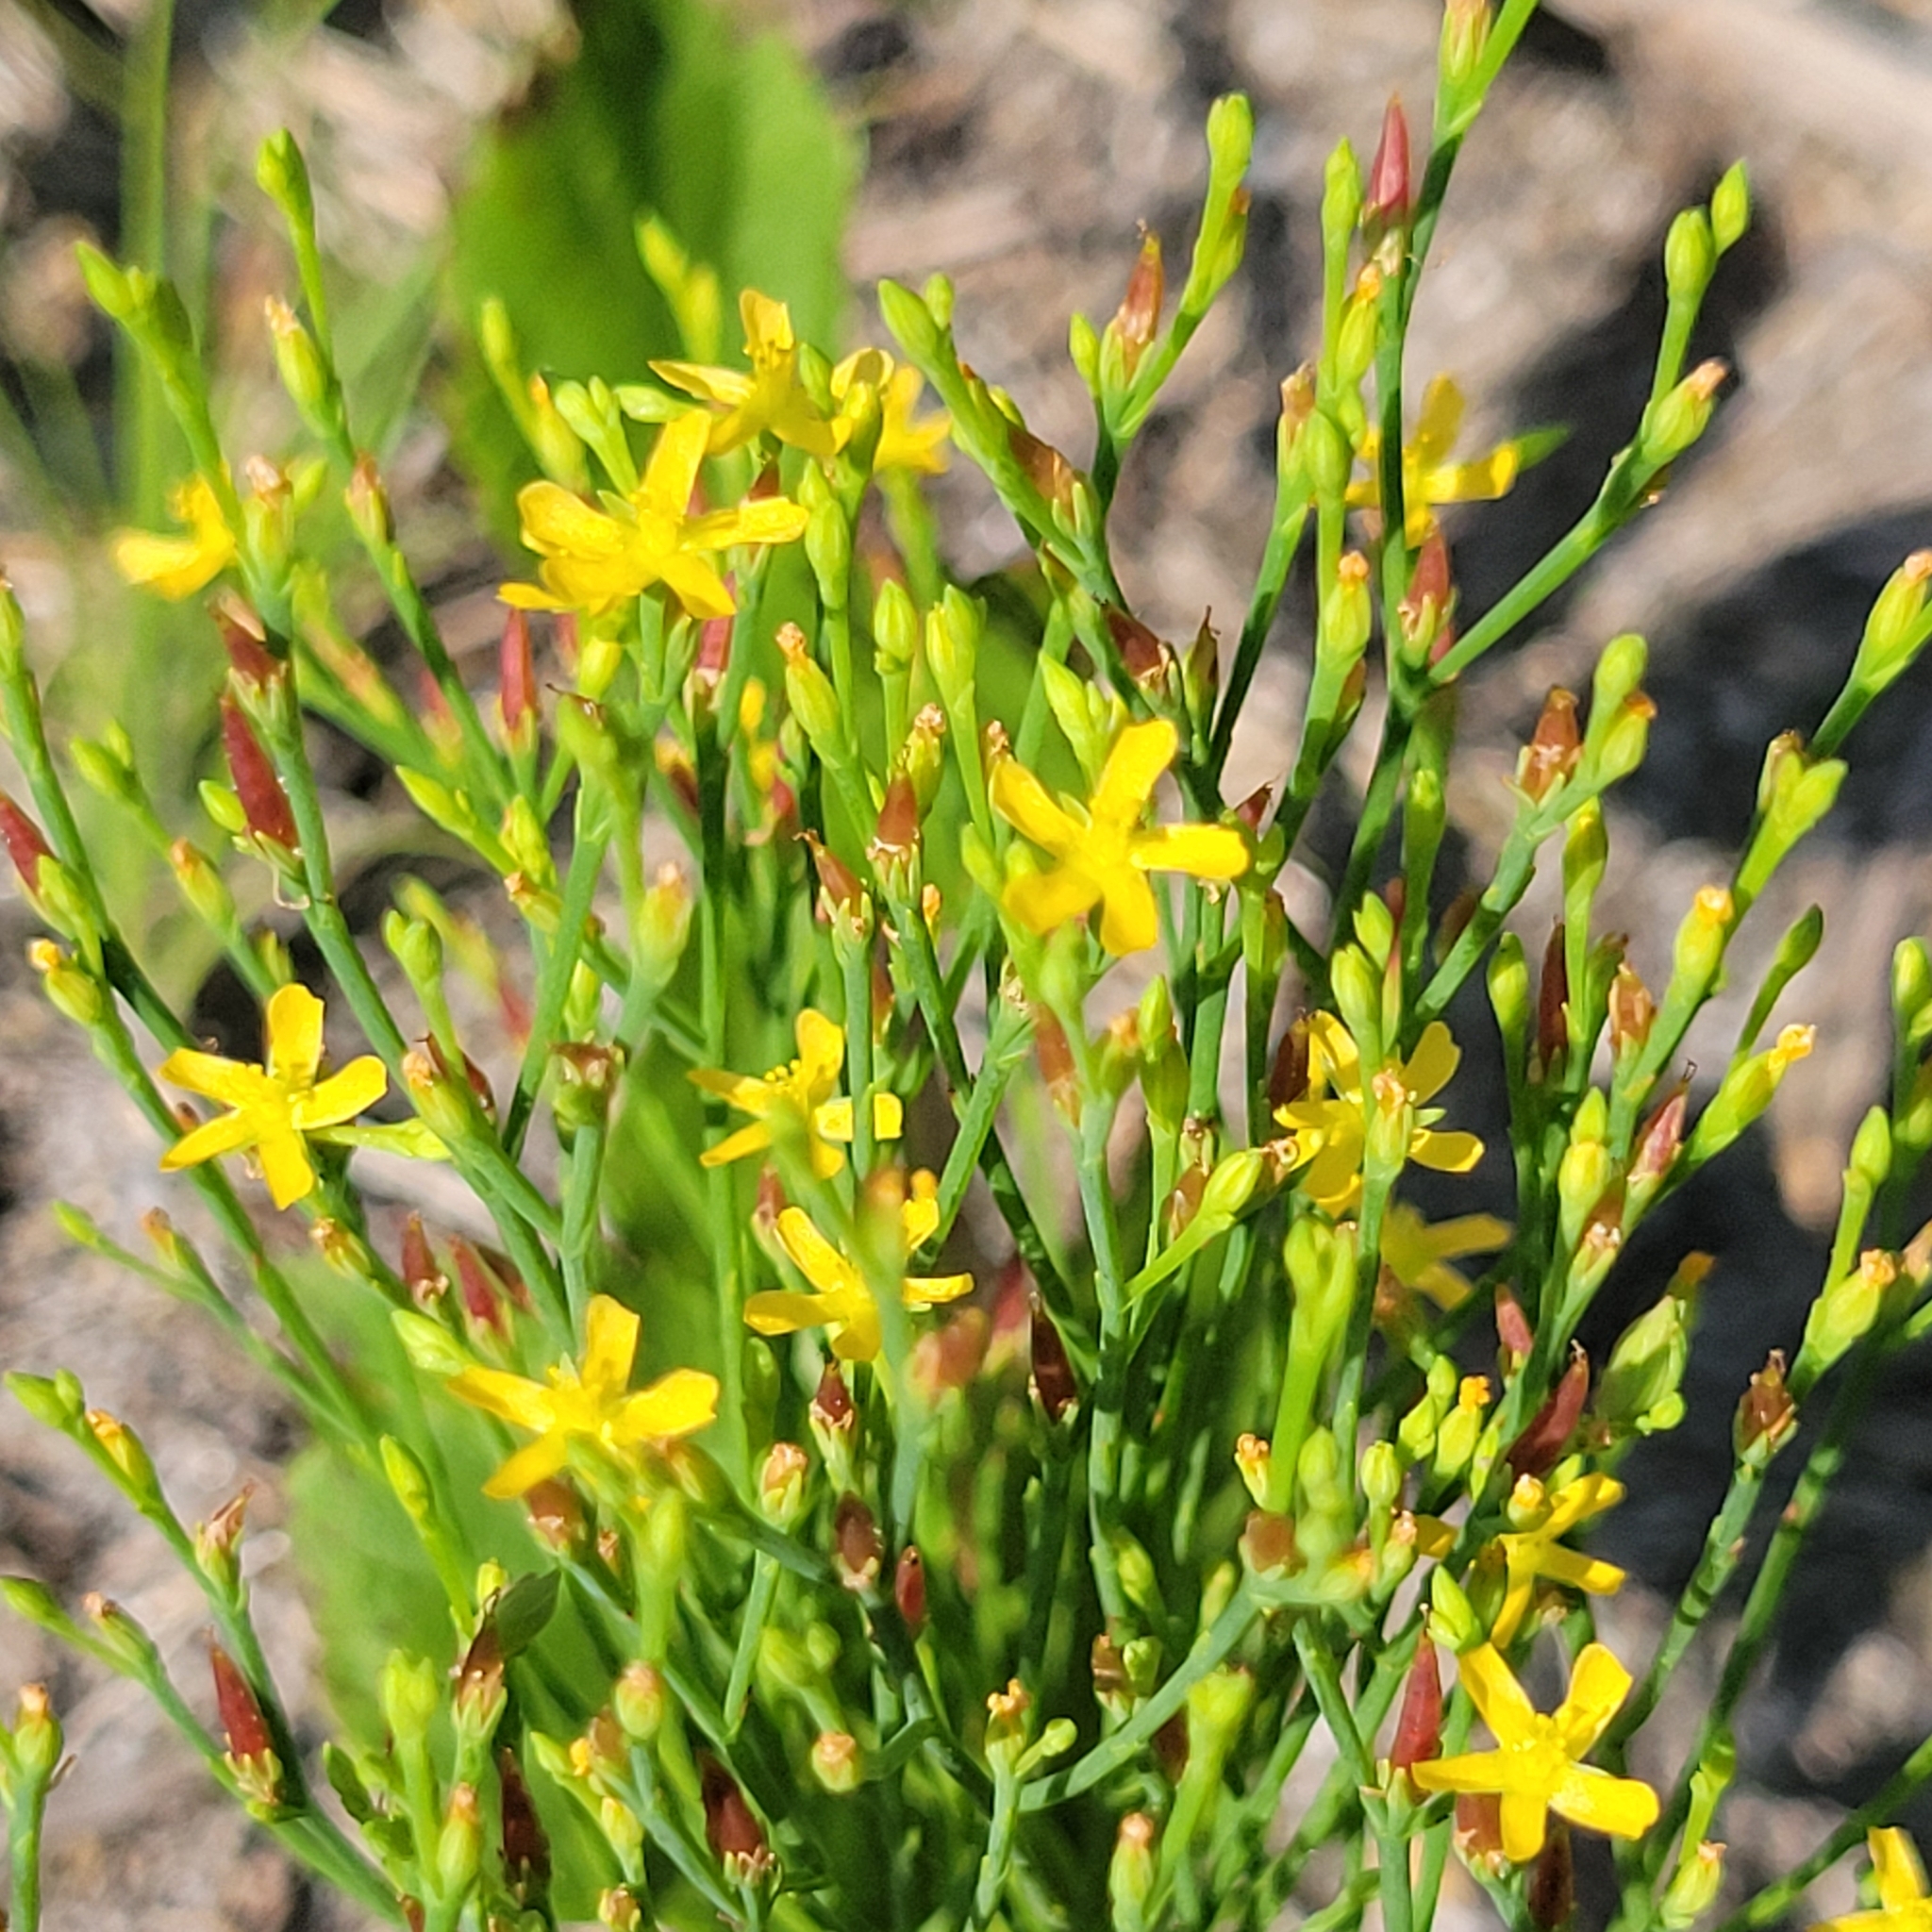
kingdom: Plantae
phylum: Tracheophyta
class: Magnoliopsida
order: Malpighiales
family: Hypericaceae
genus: Hypericum
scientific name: Hypericum gentianoides
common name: Gentian-leaved st. john's-wort
